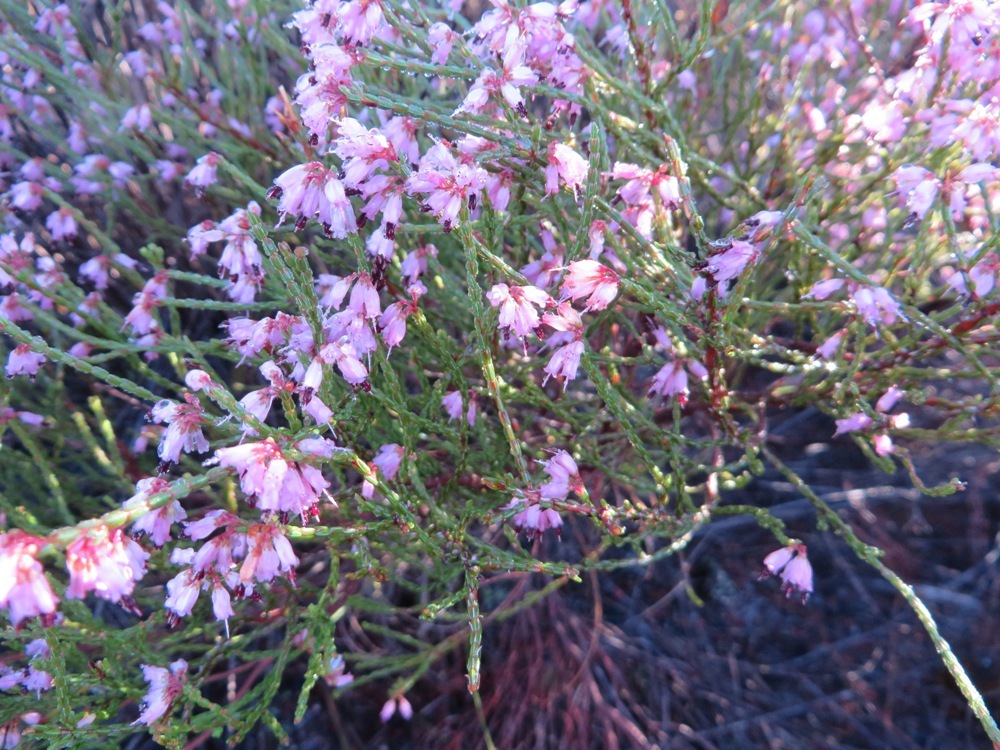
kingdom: Plantae
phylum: Tracheophyta
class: Magnoliopsida
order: Ericales
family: Ericaceae
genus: Erica
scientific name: Erica equisetifolia
